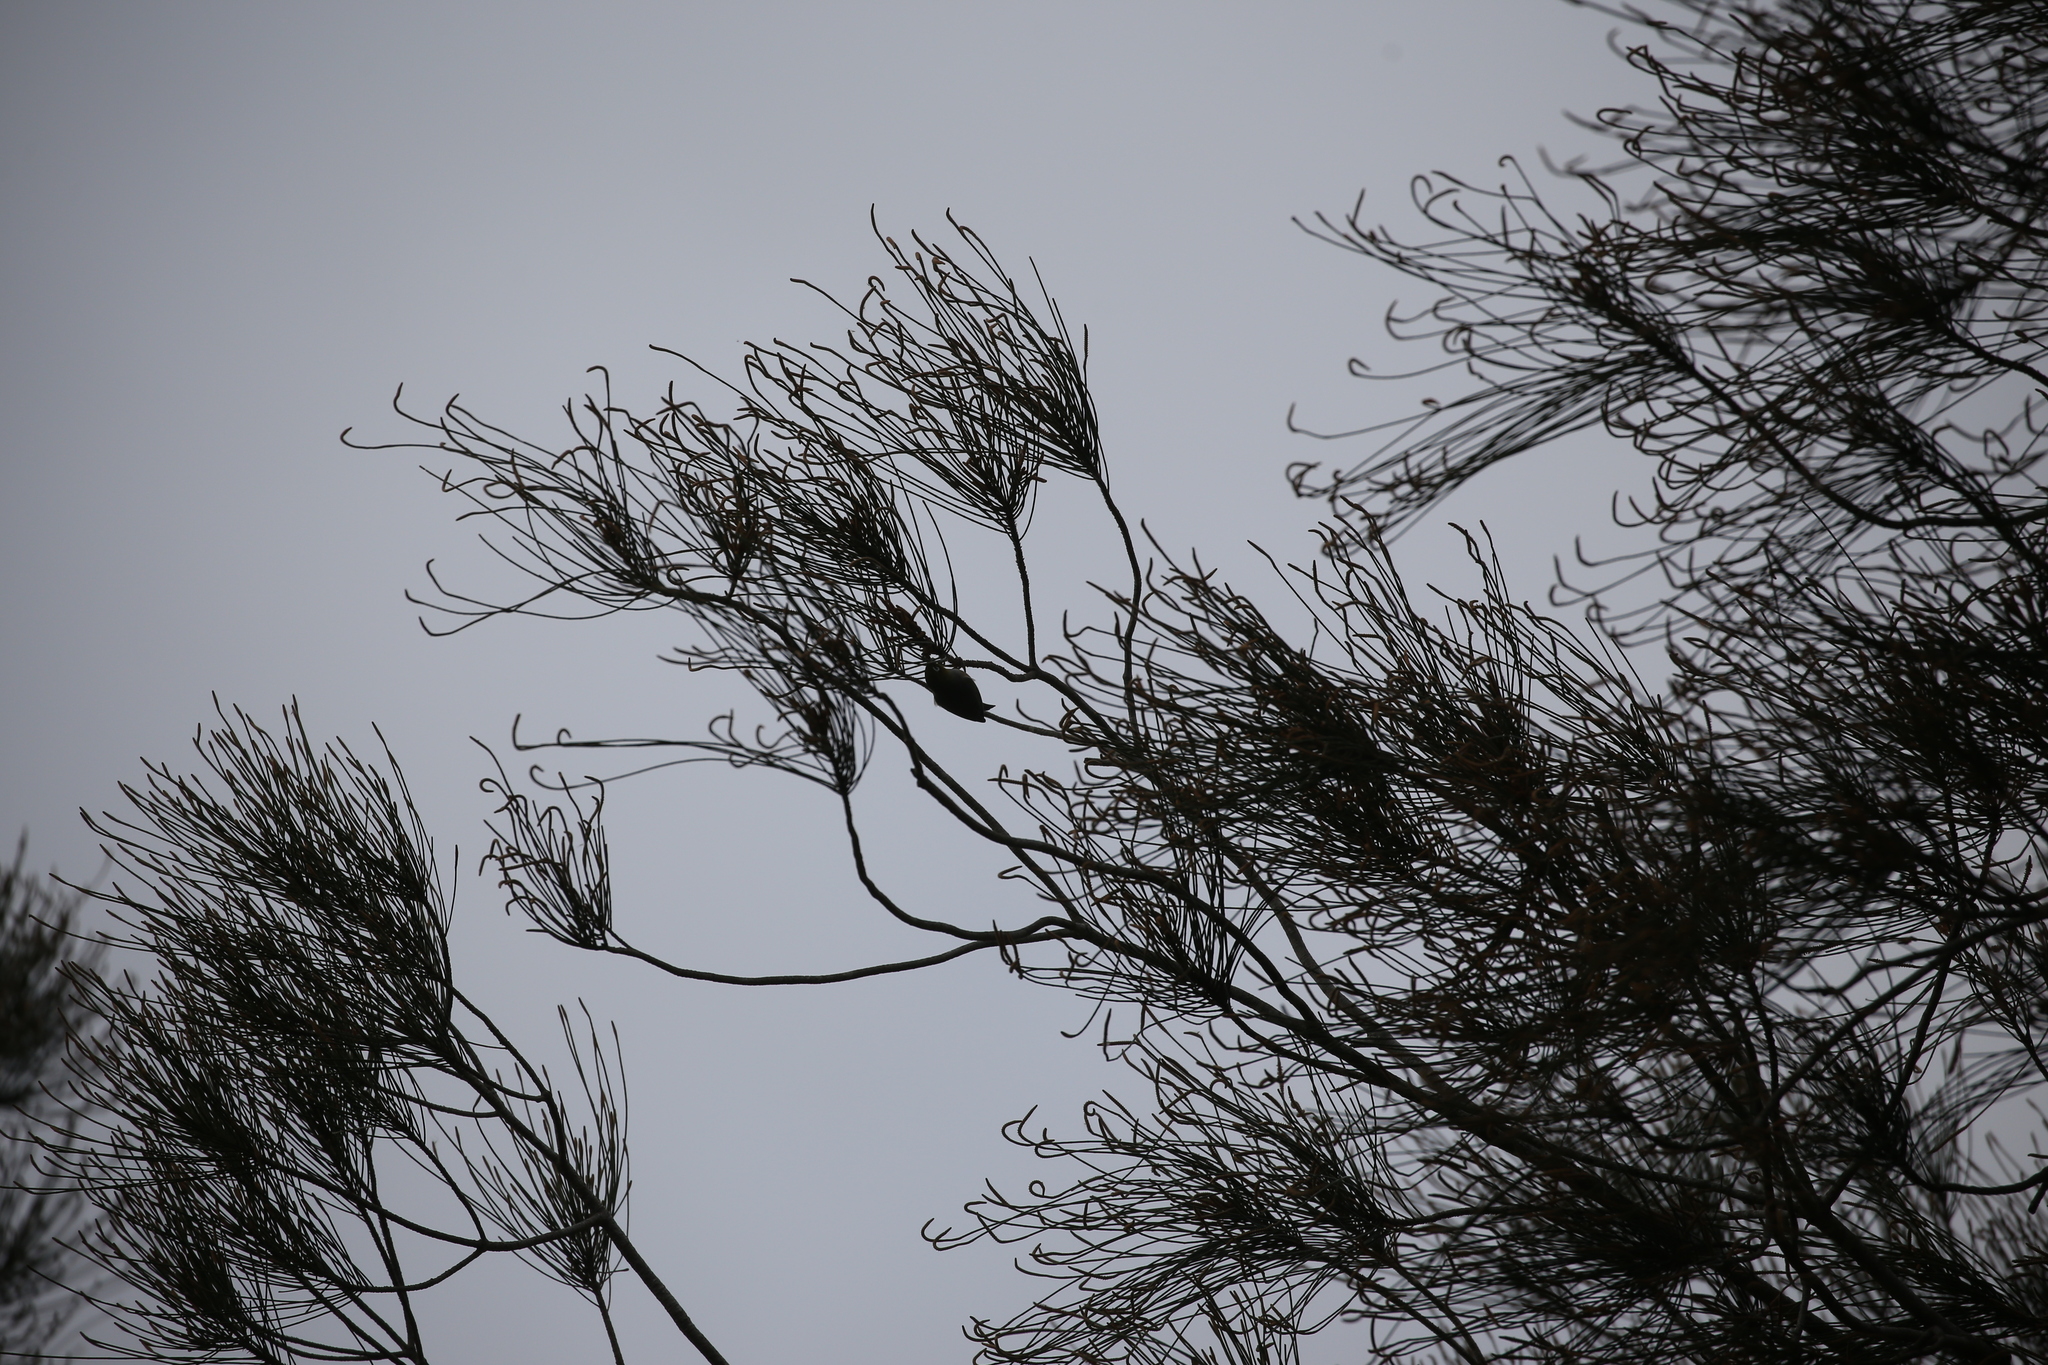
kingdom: Animalia
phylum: Chordata
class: Aves
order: Passeriformes
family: Zosteropidae
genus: Zosterops
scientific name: Zosterops lateralis
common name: Silvereye
